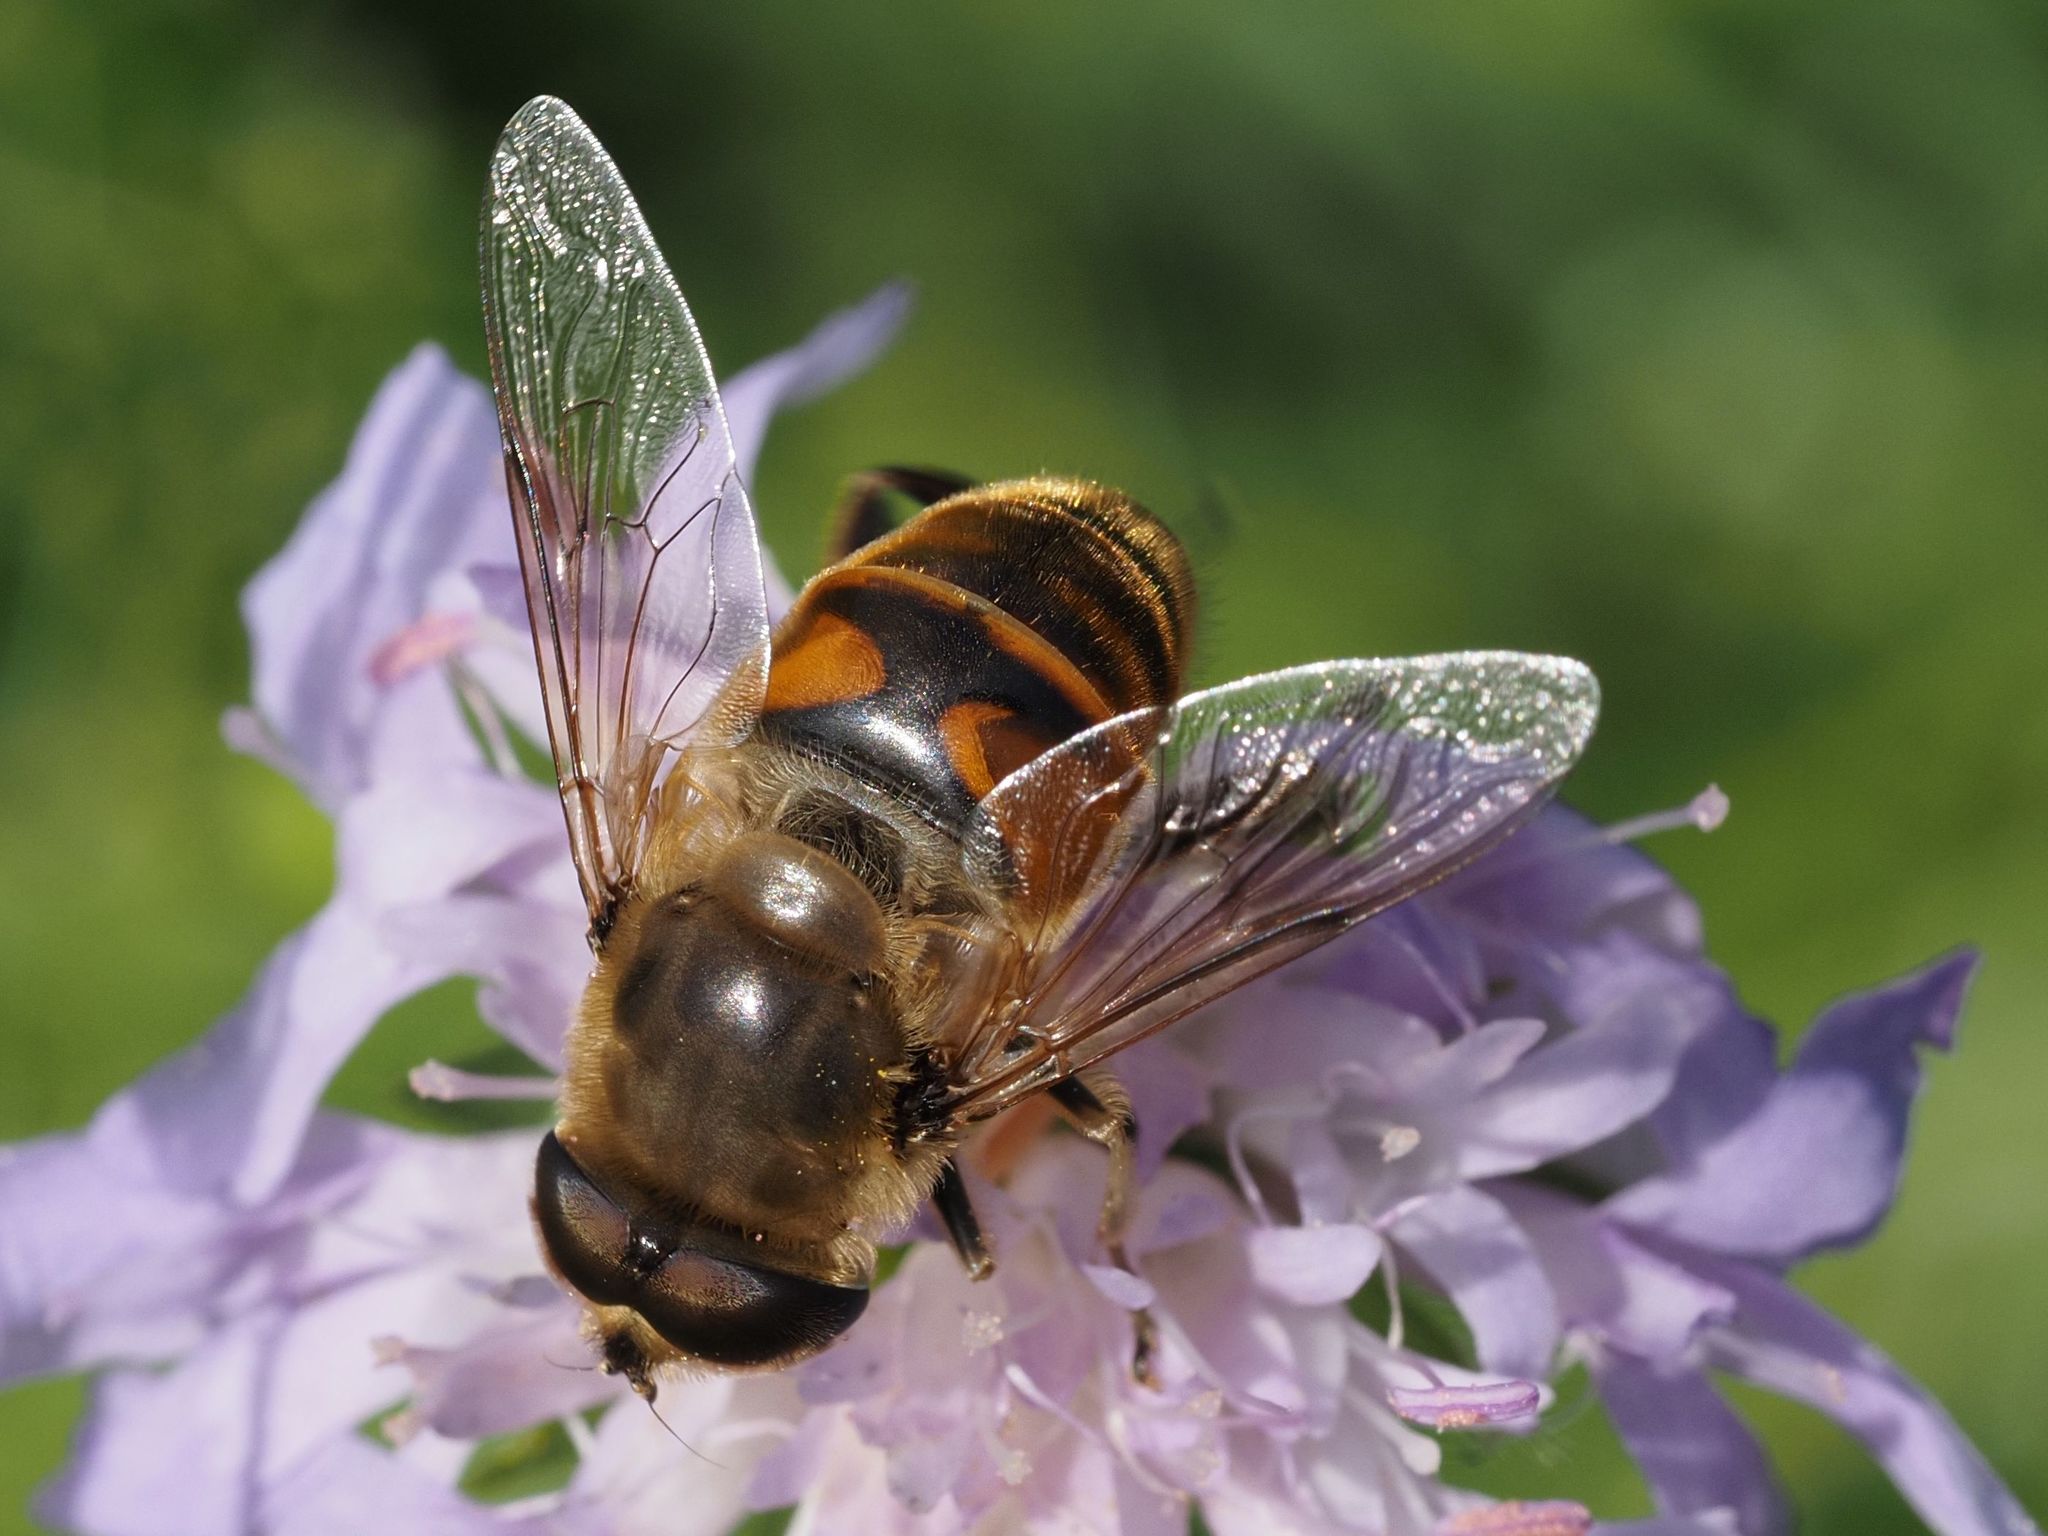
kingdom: Animalia
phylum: Arthropoda
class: Insecta
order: Diptera
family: Syrphidae
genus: Eristalis
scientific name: Eristalis tenax
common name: Drone fly
